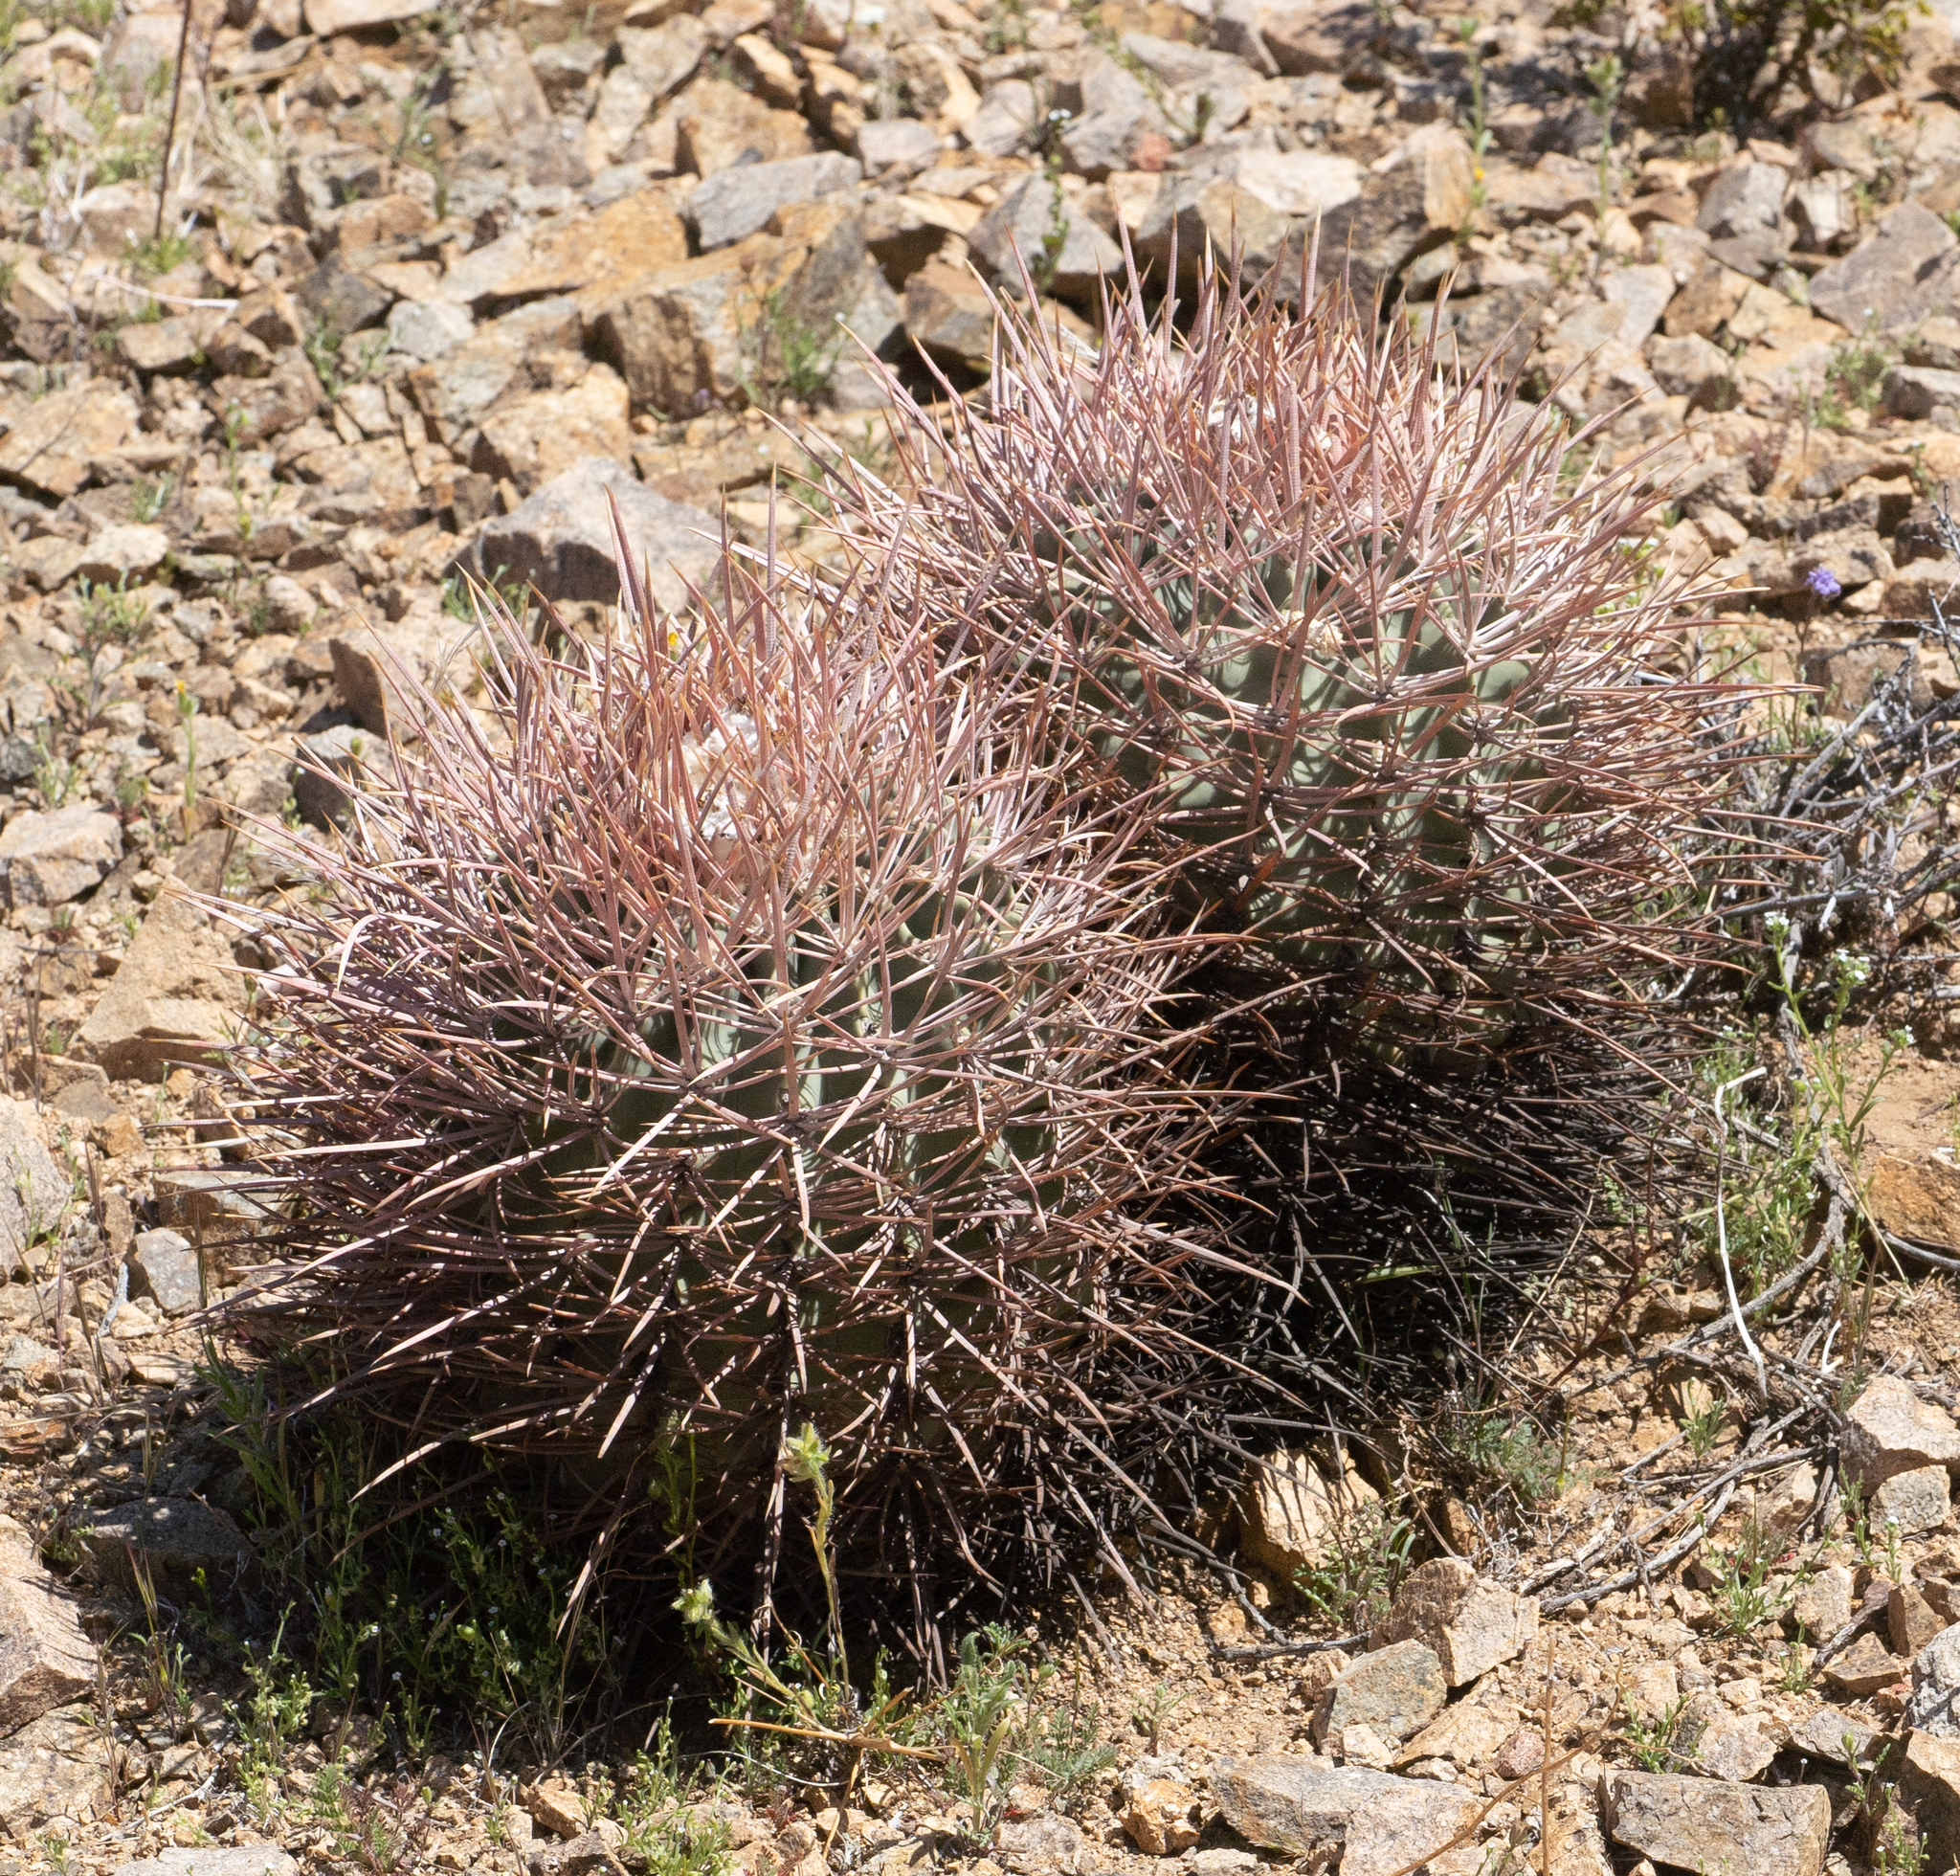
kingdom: Plantae
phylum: Tracheophyta
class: Magnoliopsida
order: Caryophyllales
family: Cactaceae
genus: Echinocactus
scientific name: Echinocactus polycephalus
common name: Cottontop cactus
